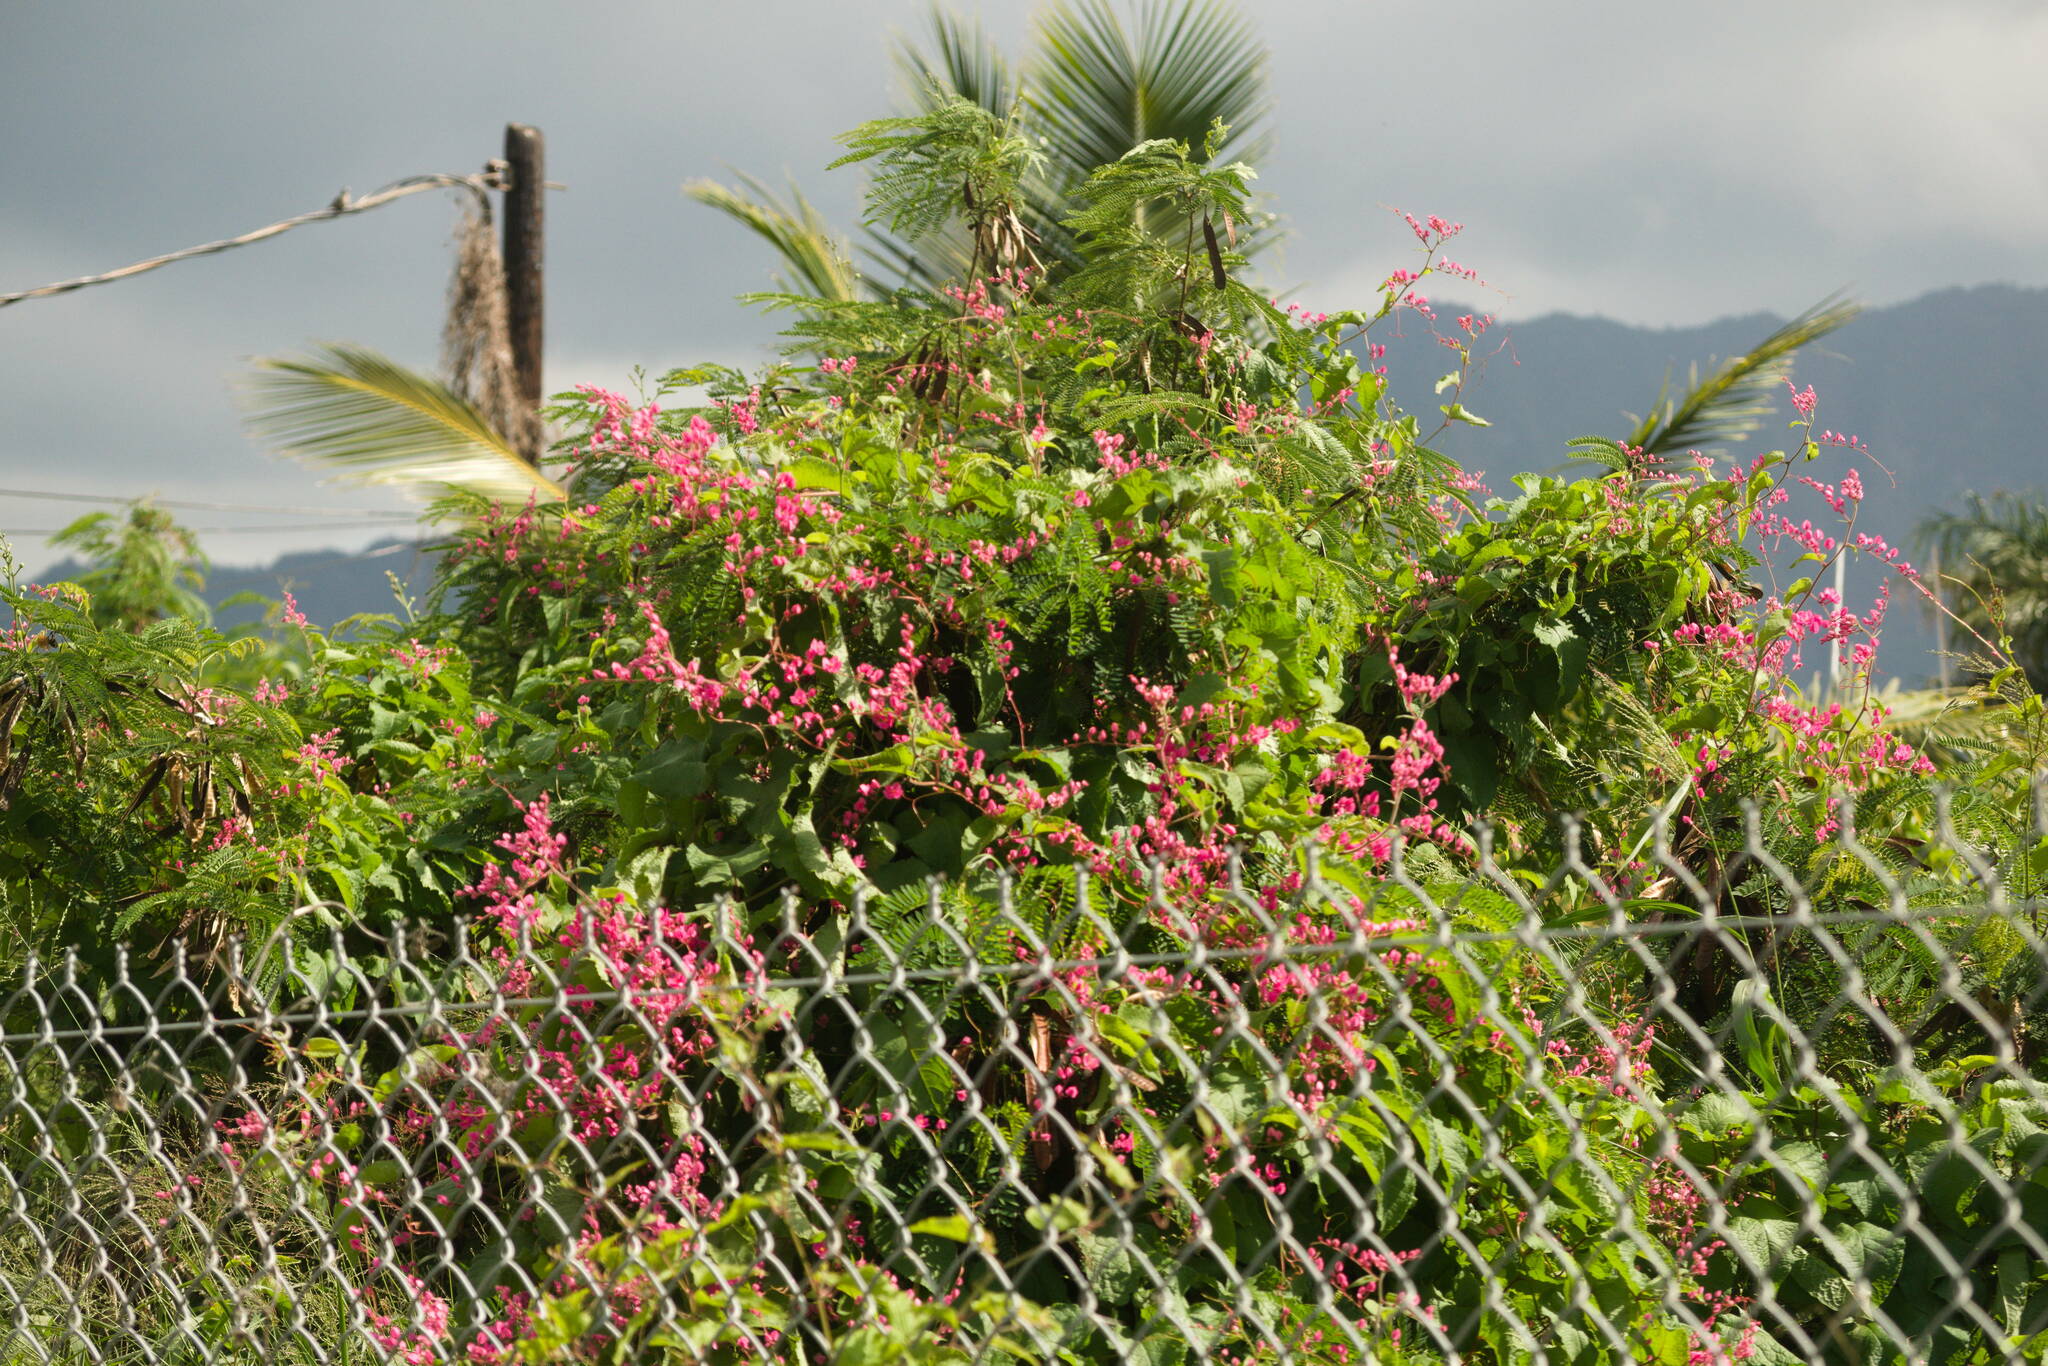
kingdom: Plantae
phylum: Tracheophyta
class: Magnoliopsida
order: Caryophyllales
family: Polygonaceae
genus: Antigonon
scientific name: Antigonon leptopus
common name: Coral vine
